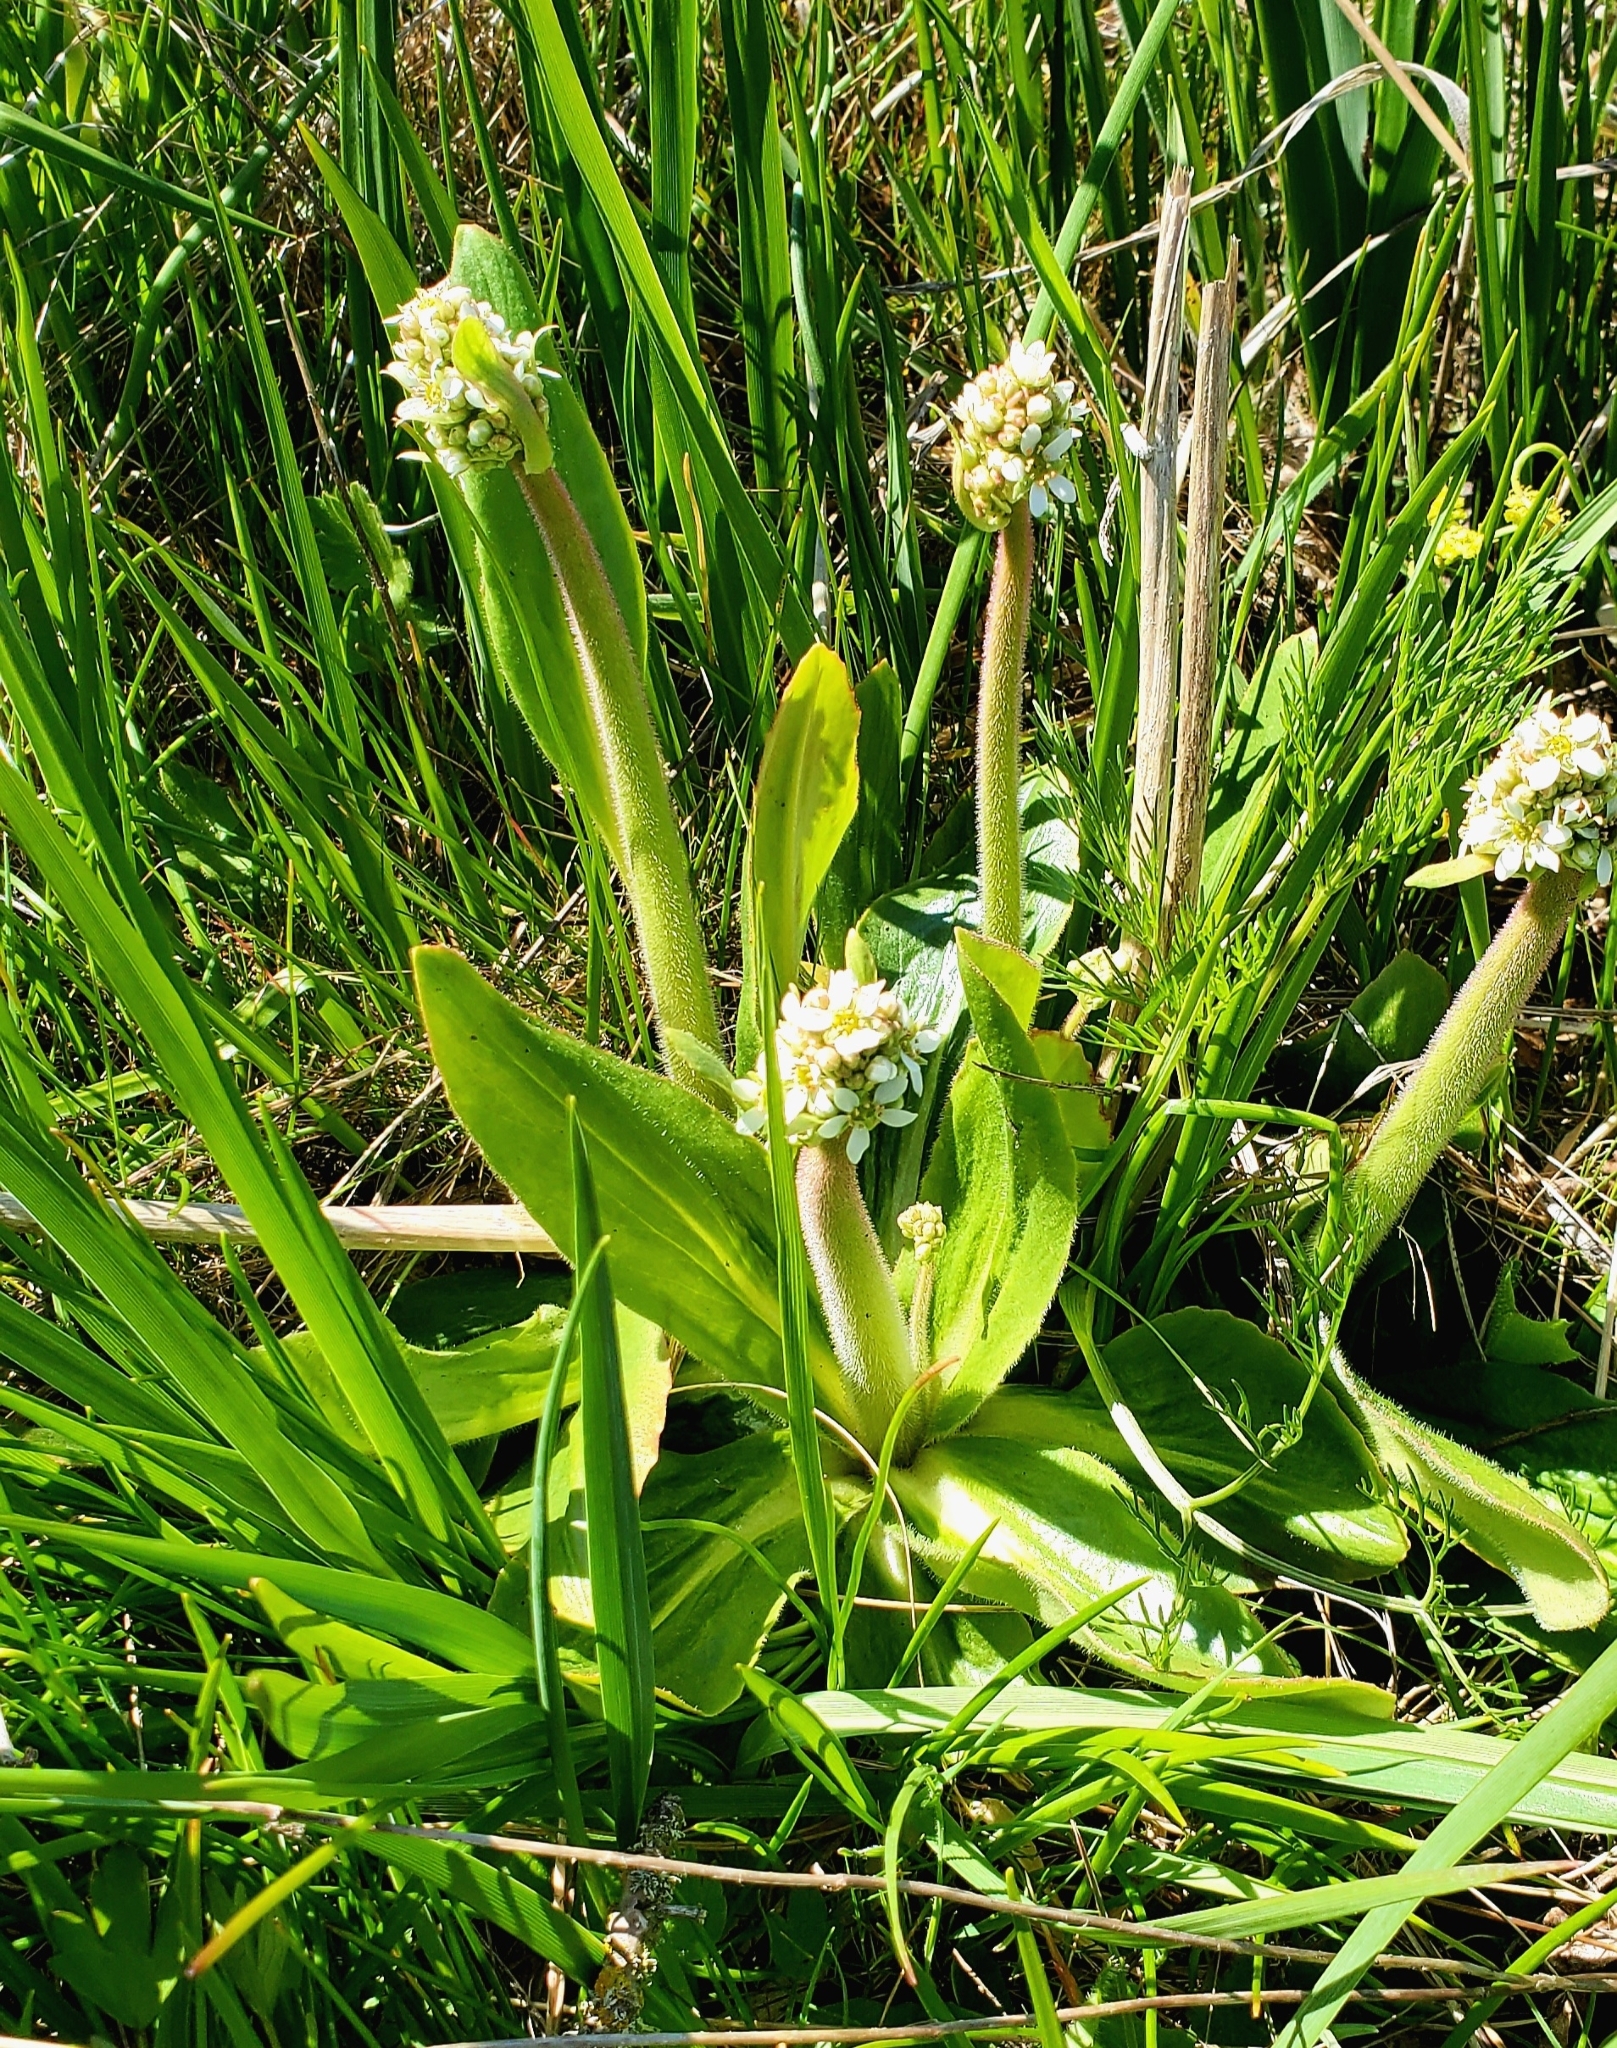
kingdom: Plantae
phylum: Tracheophyta
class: Magnoliopsida
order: Saxifragales
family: Saxifragaceae
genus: Micranthes
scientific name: Micranthes oregana
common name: Bog saxifrage
